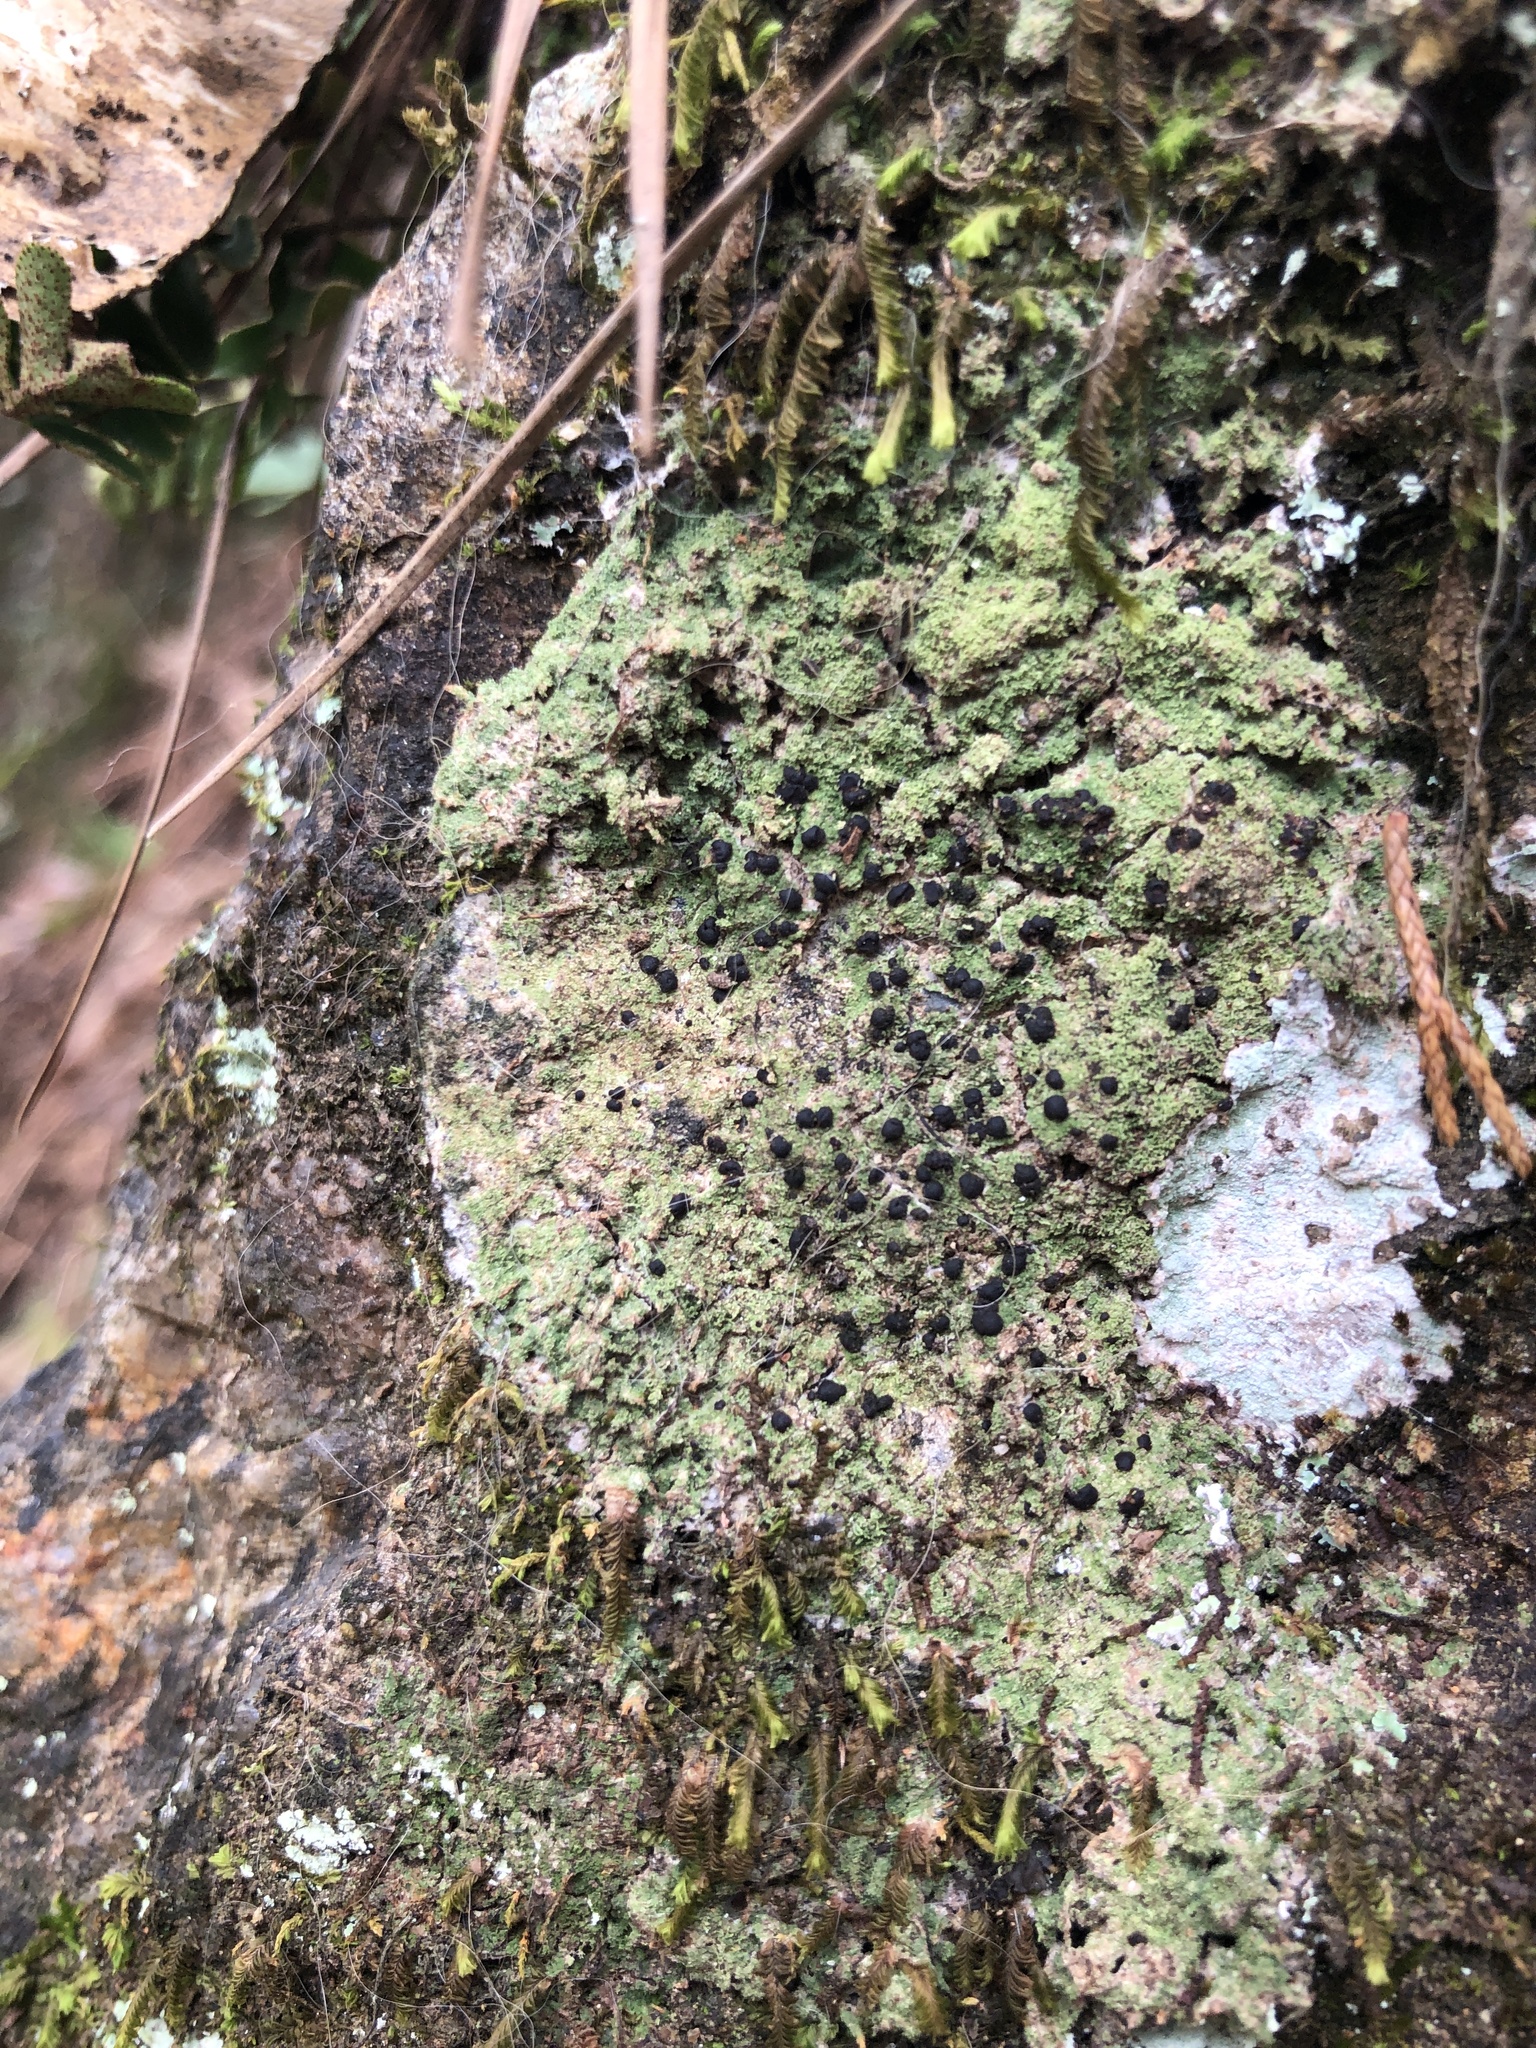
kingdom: Fungi
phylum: Ascomycota
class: Lecanoromycetes
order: Lecanorales
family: Ramalinaceae
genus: Bacidia
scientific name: Bacidia schweinitzii
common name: Surprise lichen
